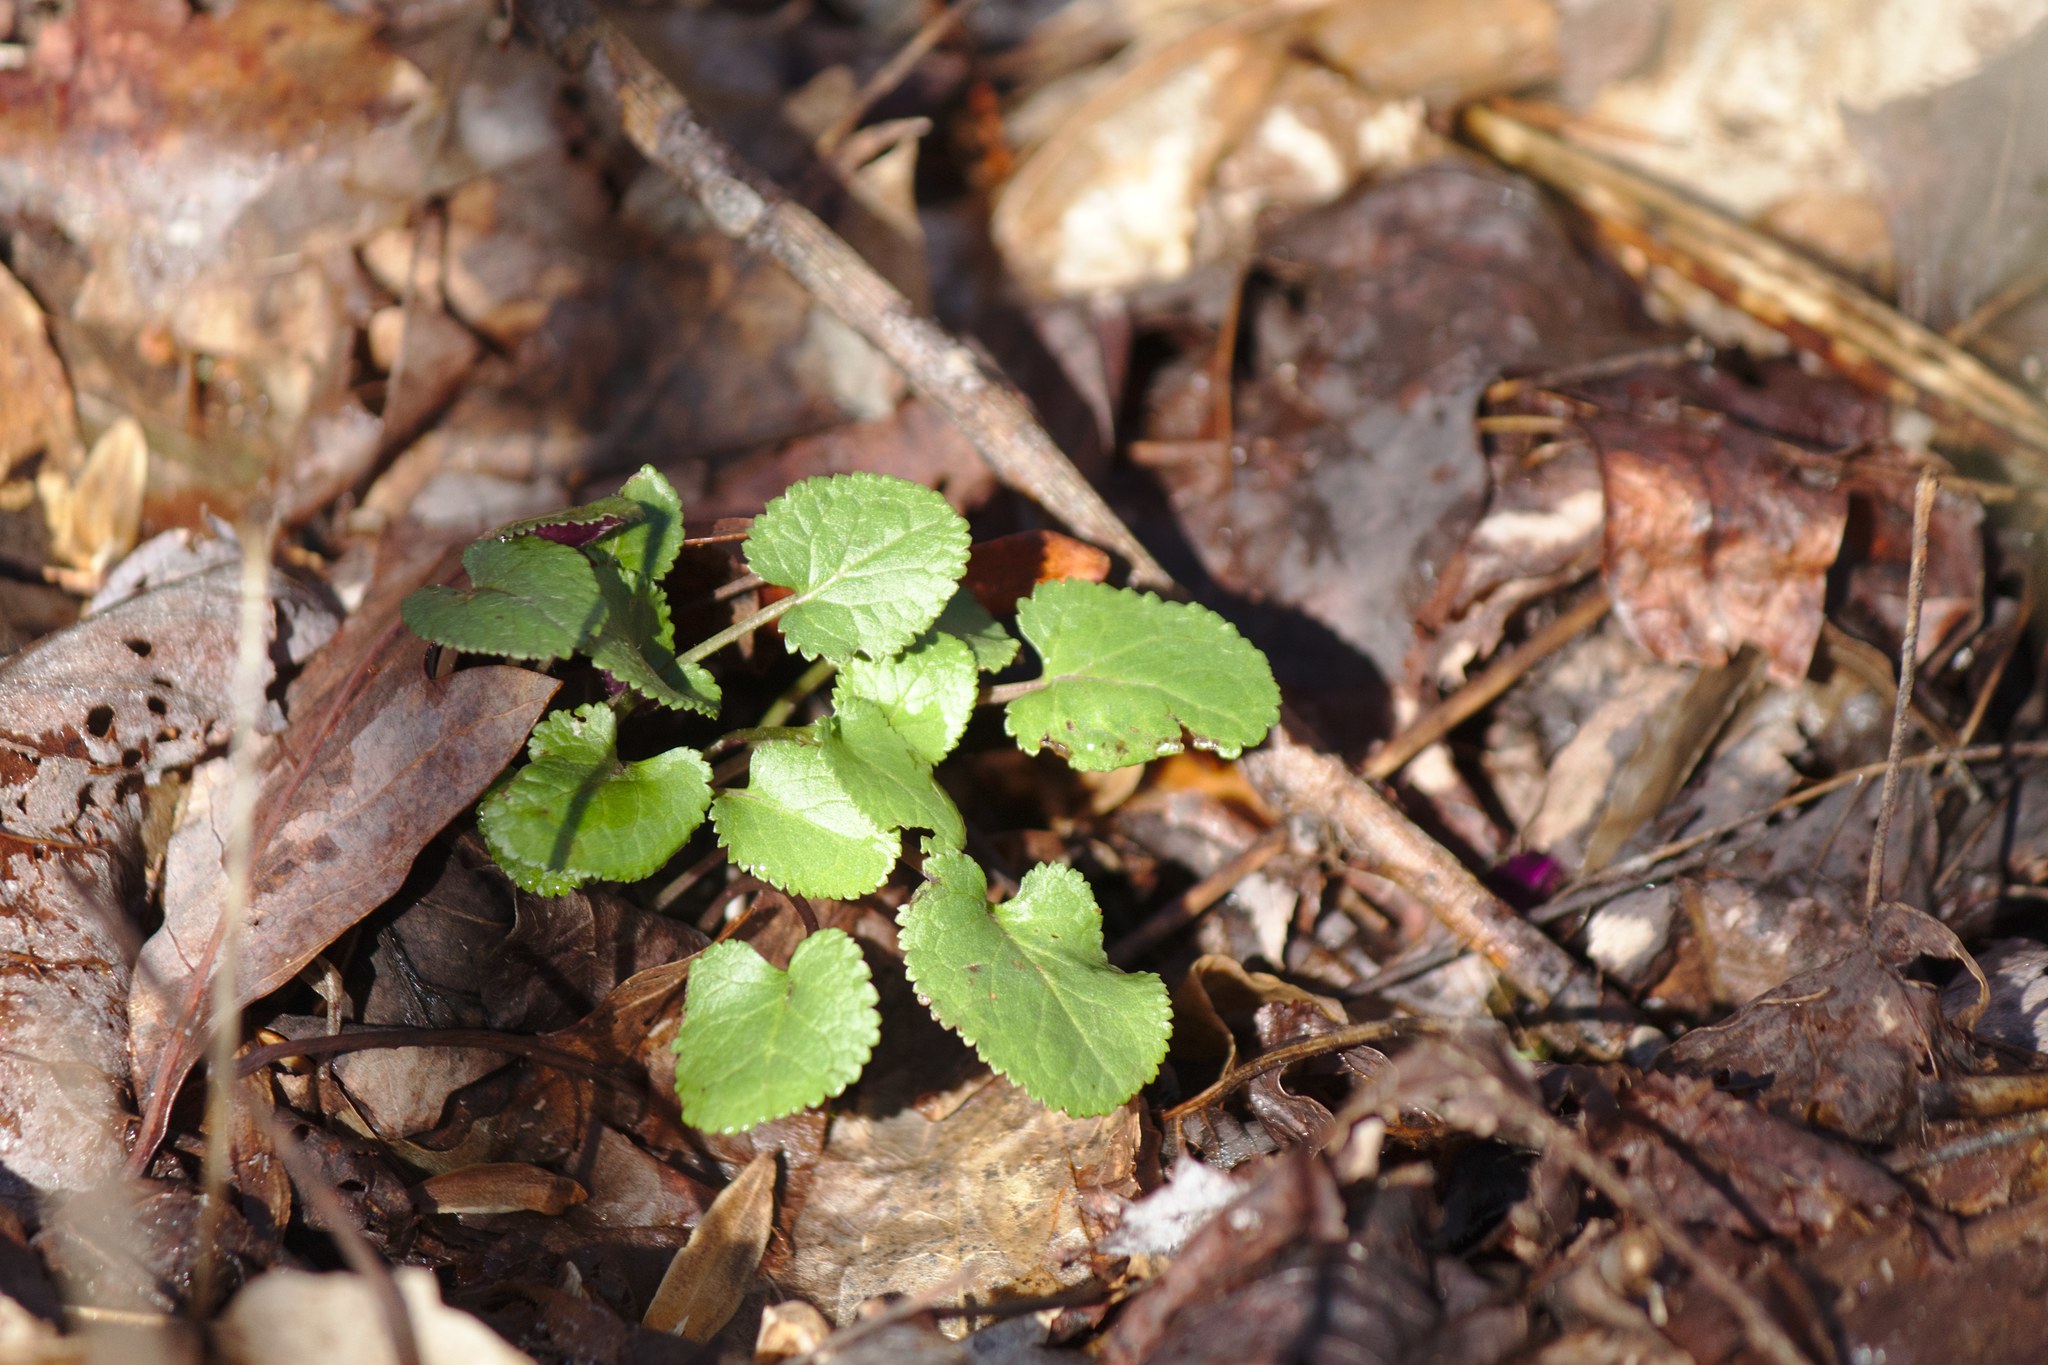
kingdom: Plantae
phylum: Tracheophyta
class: Magnoliopsida
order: Asterales
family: Asteraceae
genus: Packera
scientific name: Packera aurea
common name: Golden groundsel
